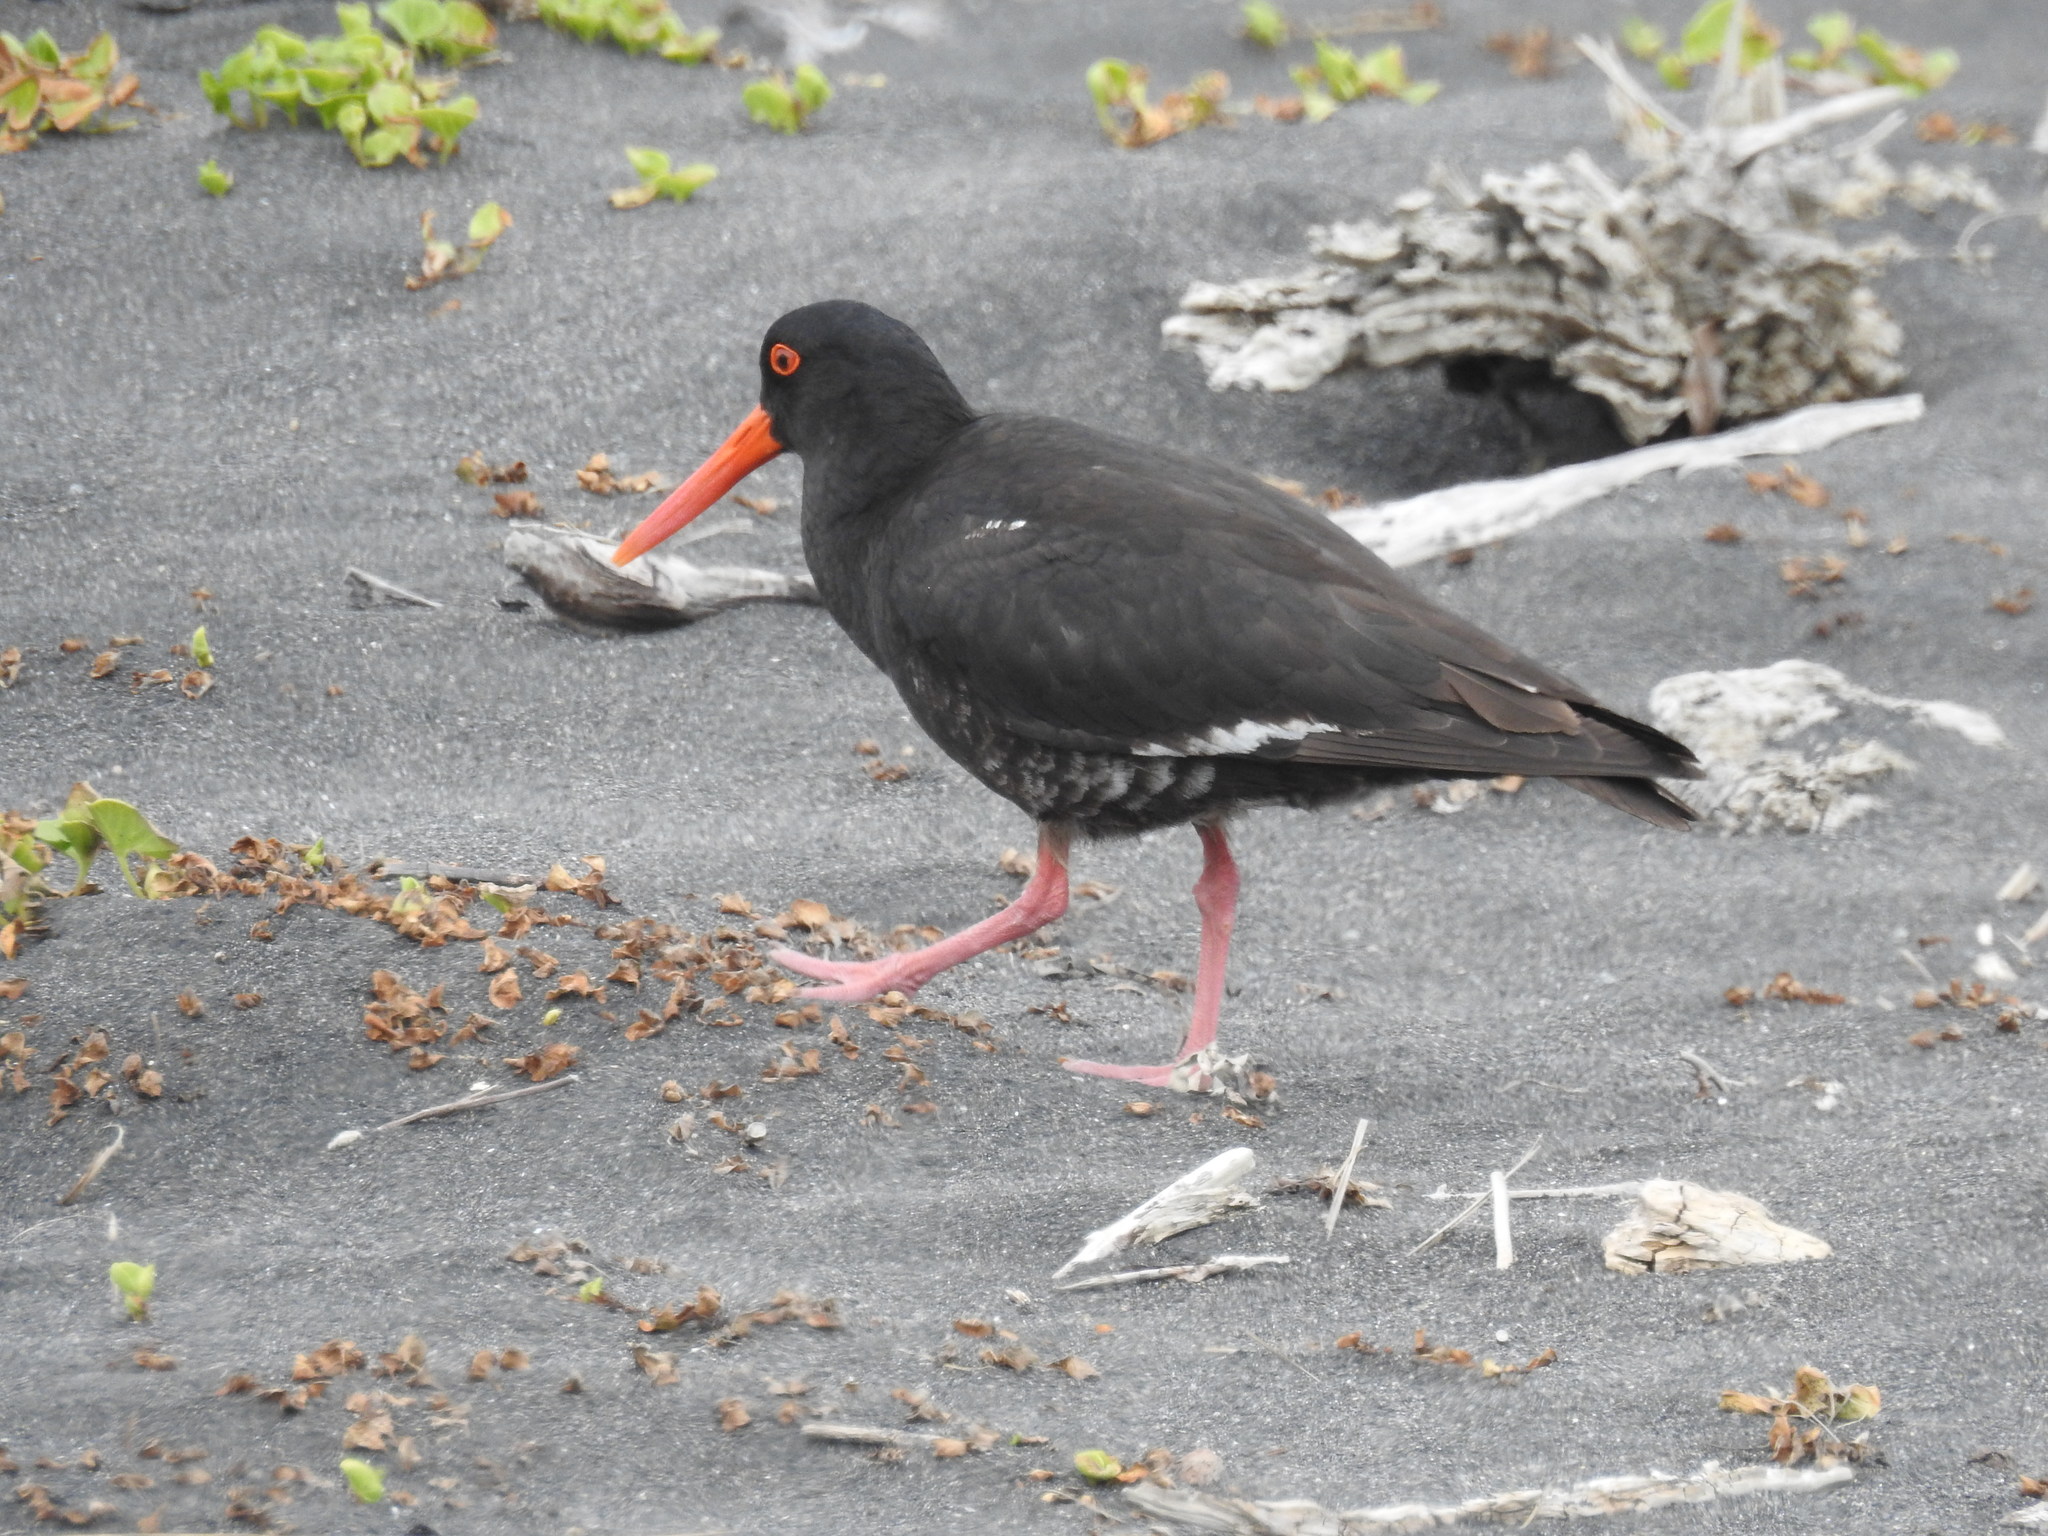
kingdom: Animalia
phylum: Chordata
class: Aves
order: Charadriiformes
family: Haematopodidae
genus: Haematopus
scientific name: Haematopus unicolor
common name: Variable oystercatcher
